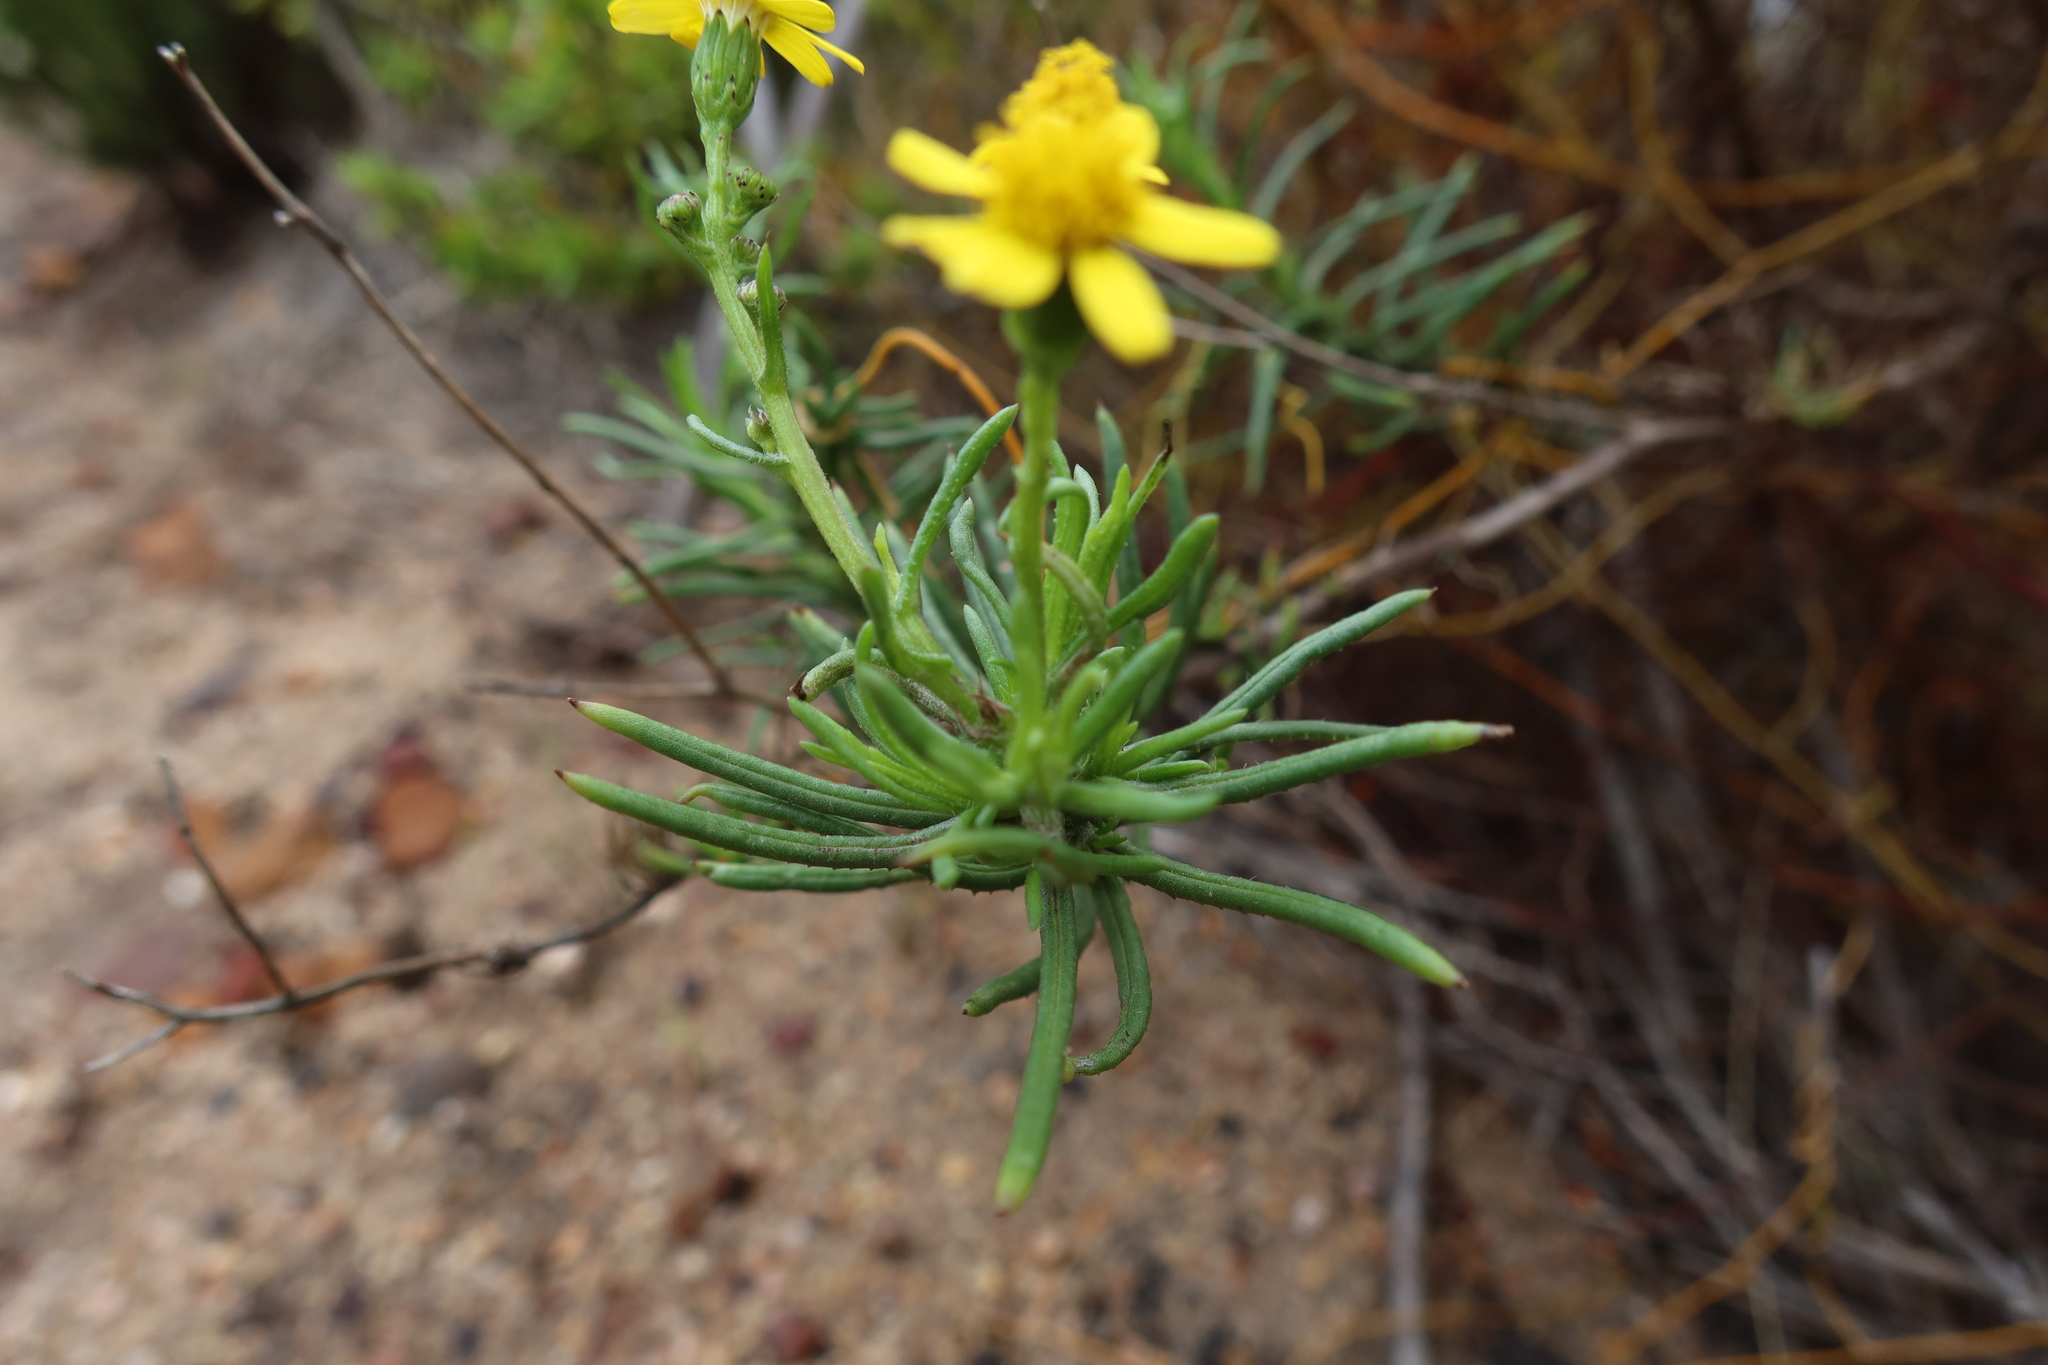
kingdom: Plantae
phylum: Tracheophyta
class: Magnoliopsida
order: Asterales
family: Asteraceae
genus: Senecio
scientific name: Senecio burchellii
